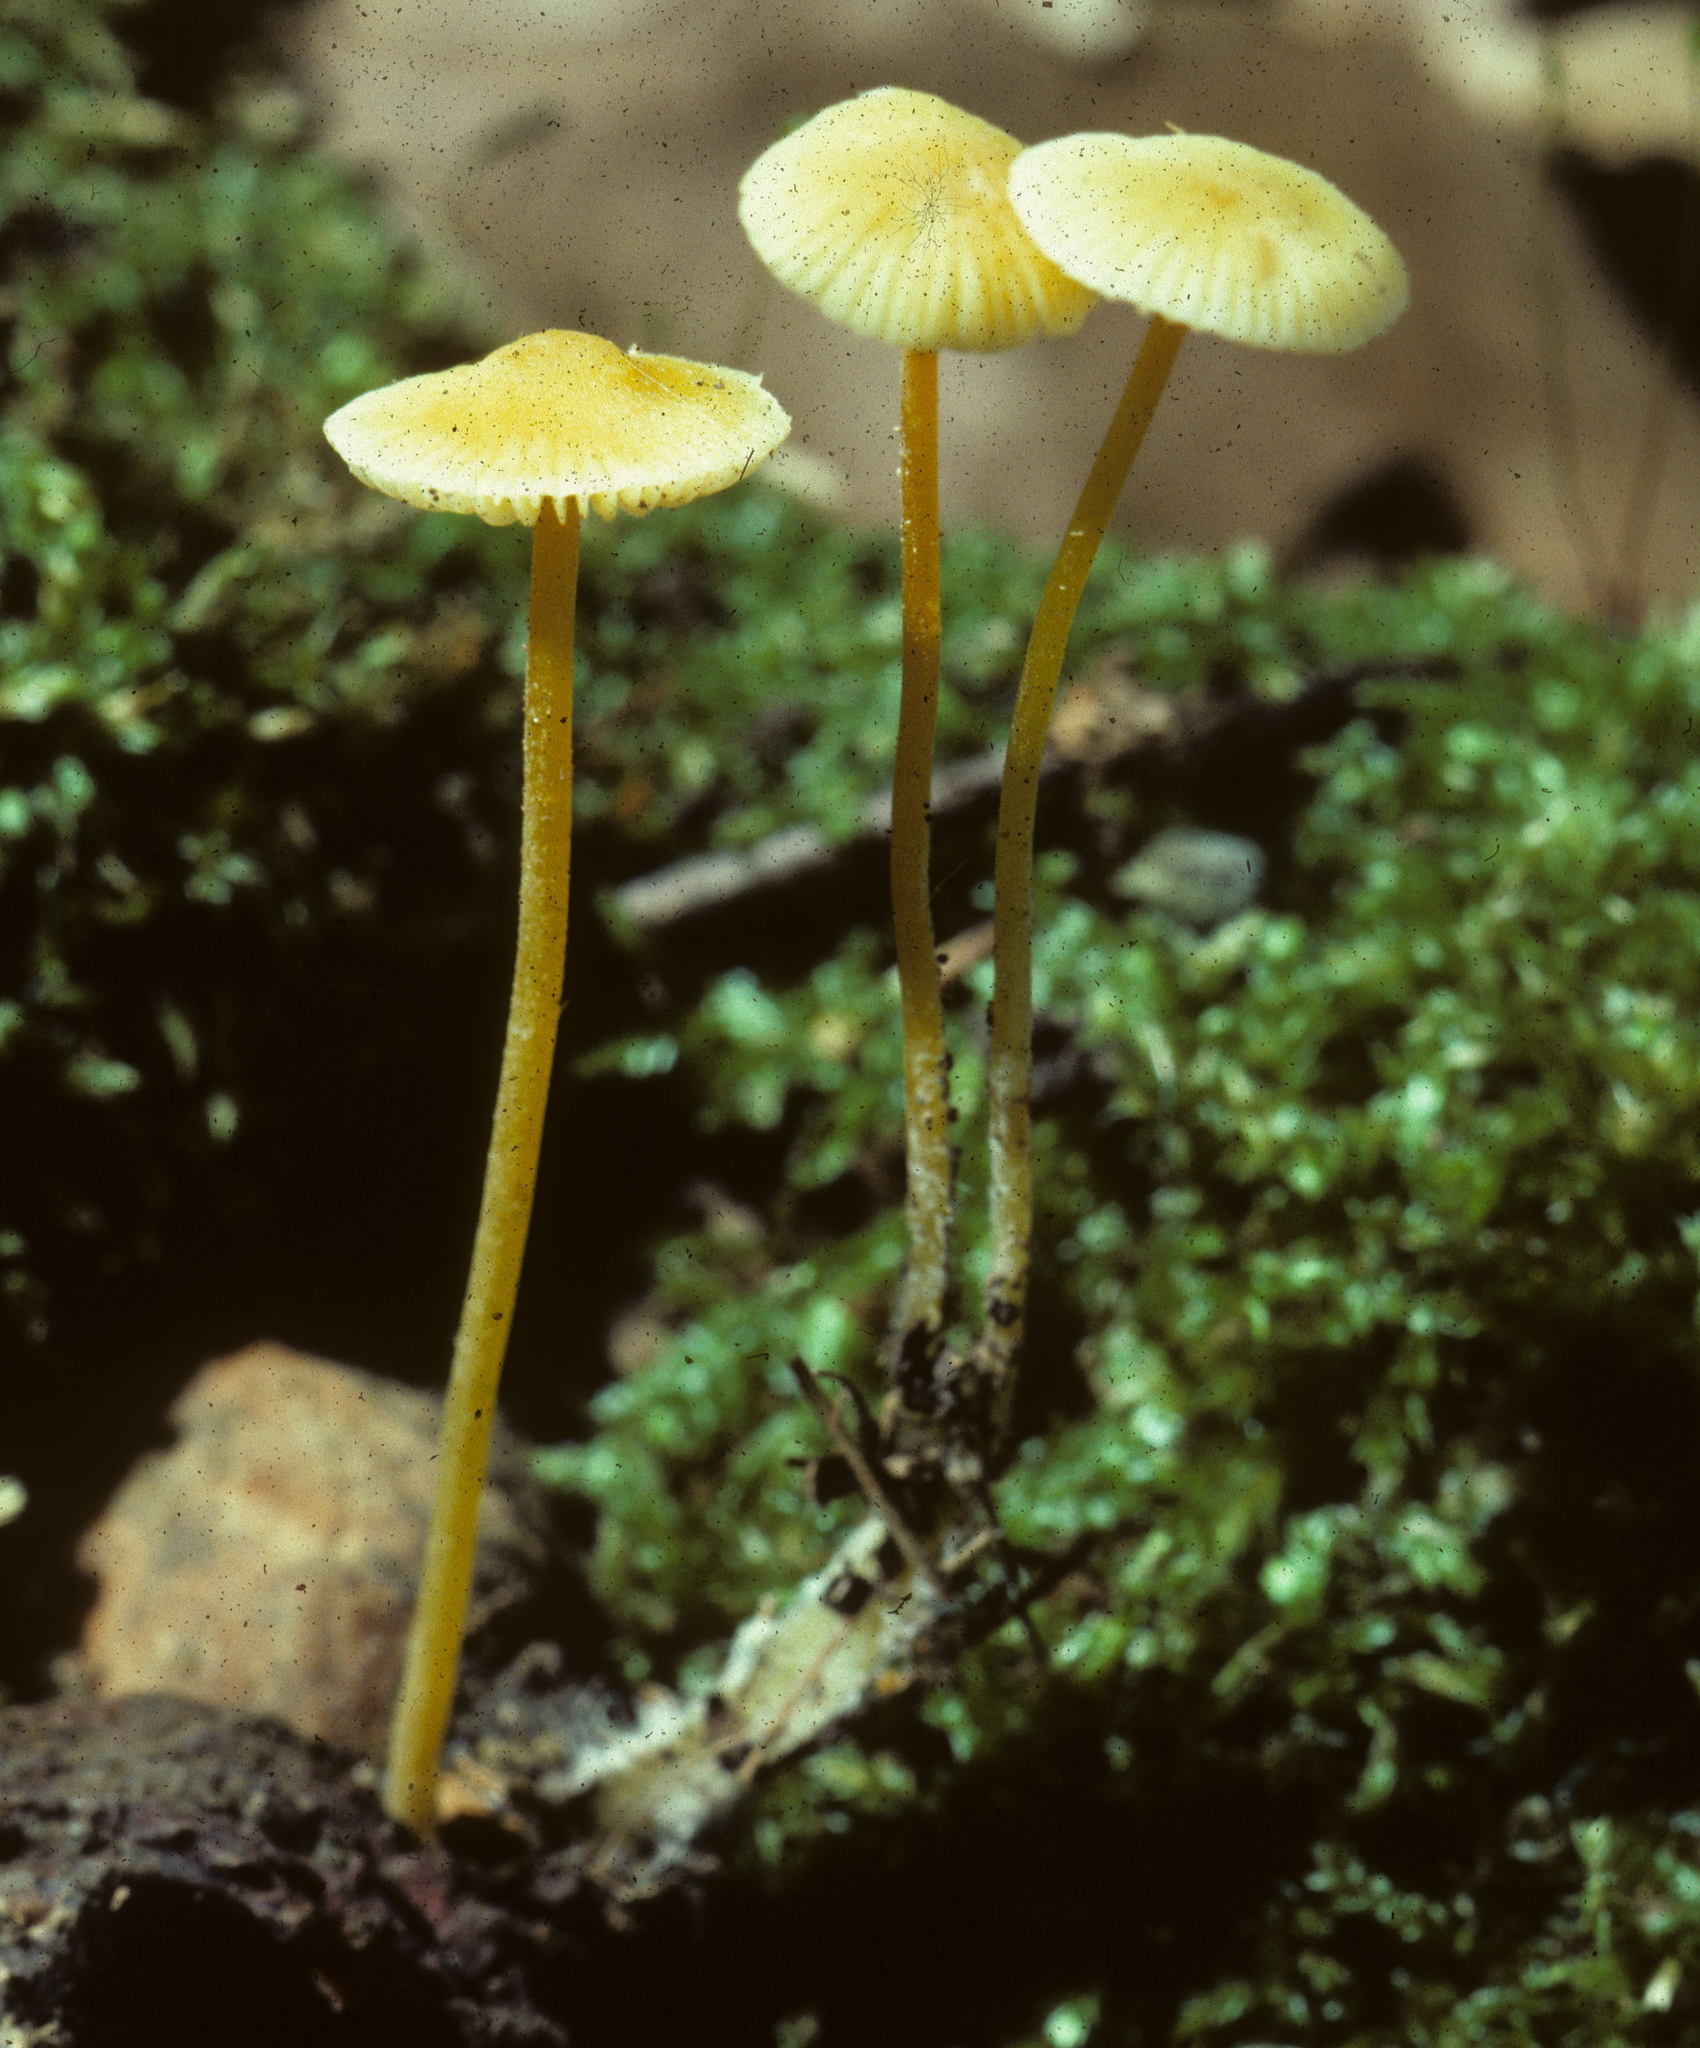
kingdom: Fungi
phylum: Basidiomycota
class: Agaricomycetes
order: Agaricales
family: Mycenaceae
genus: Mycena
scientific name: Mycena crocea
